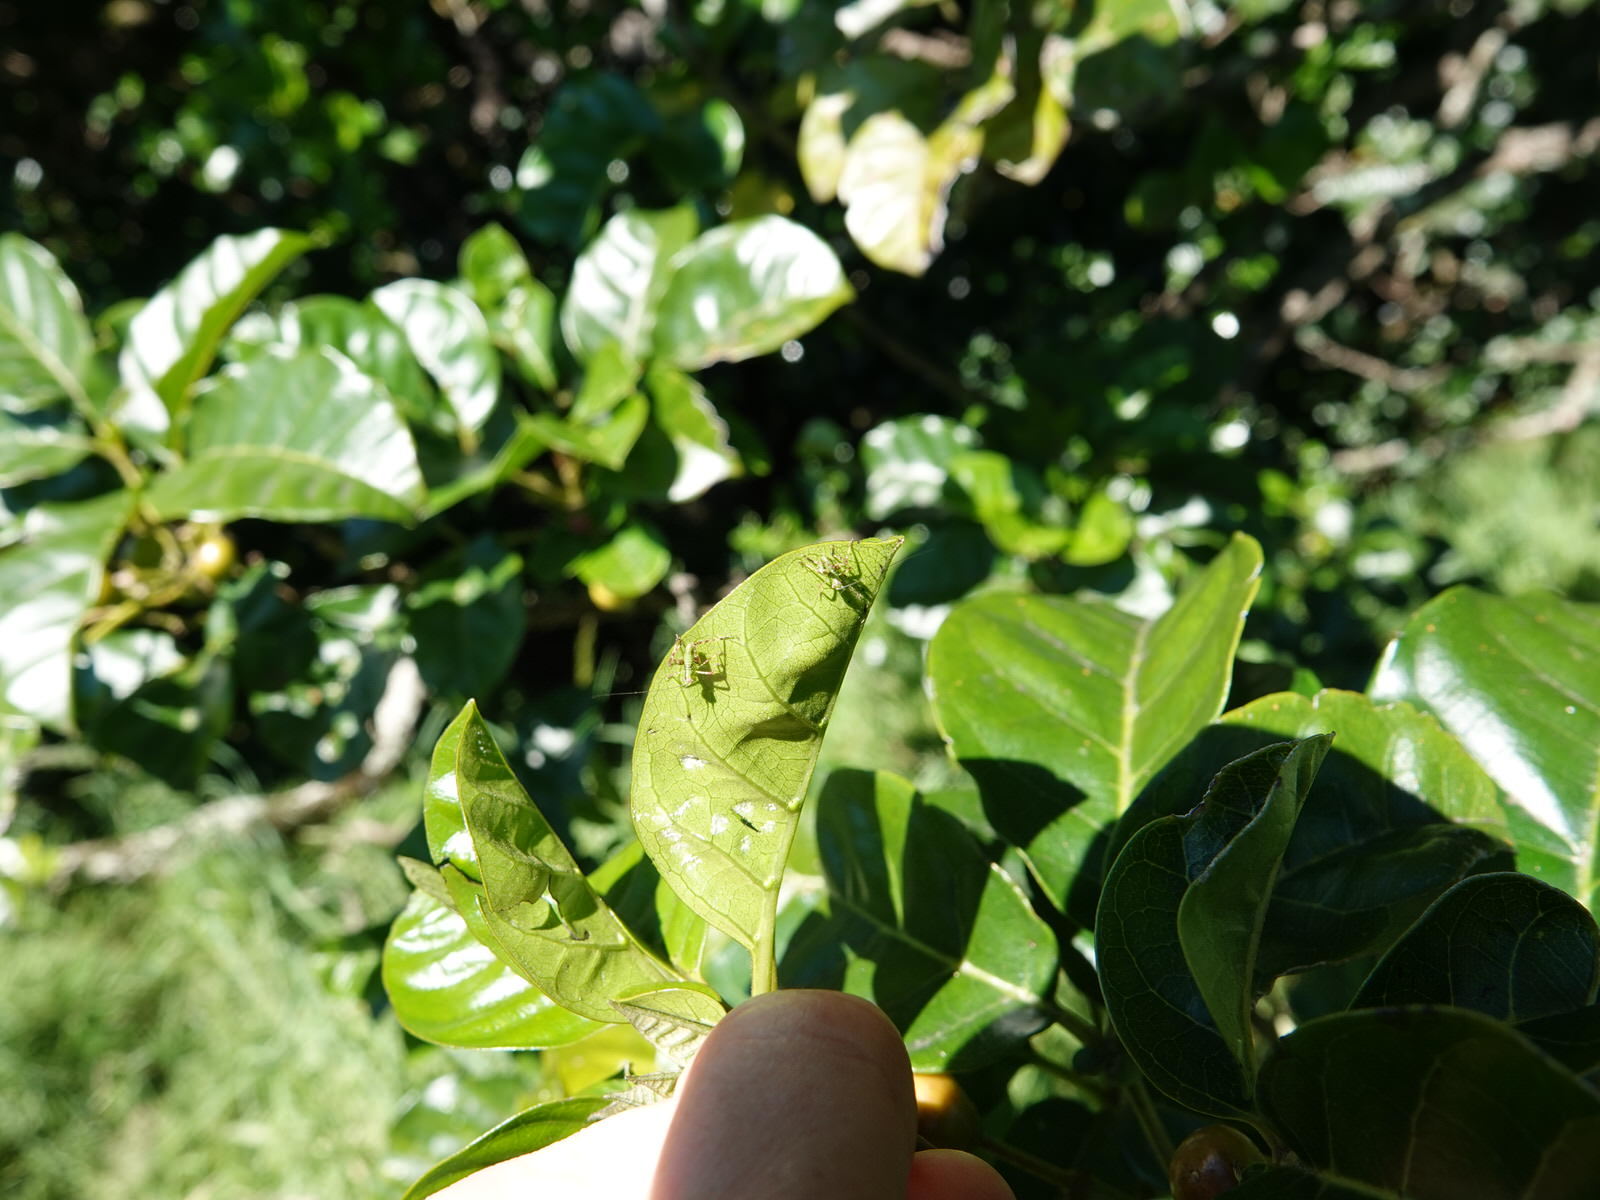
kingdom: Animalia
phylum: Arthropoda
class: Insecta
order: Orthoptera
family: Tettigoniidae
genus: Caedicia
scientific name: Caedicia simplex
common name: Common garden katydid
